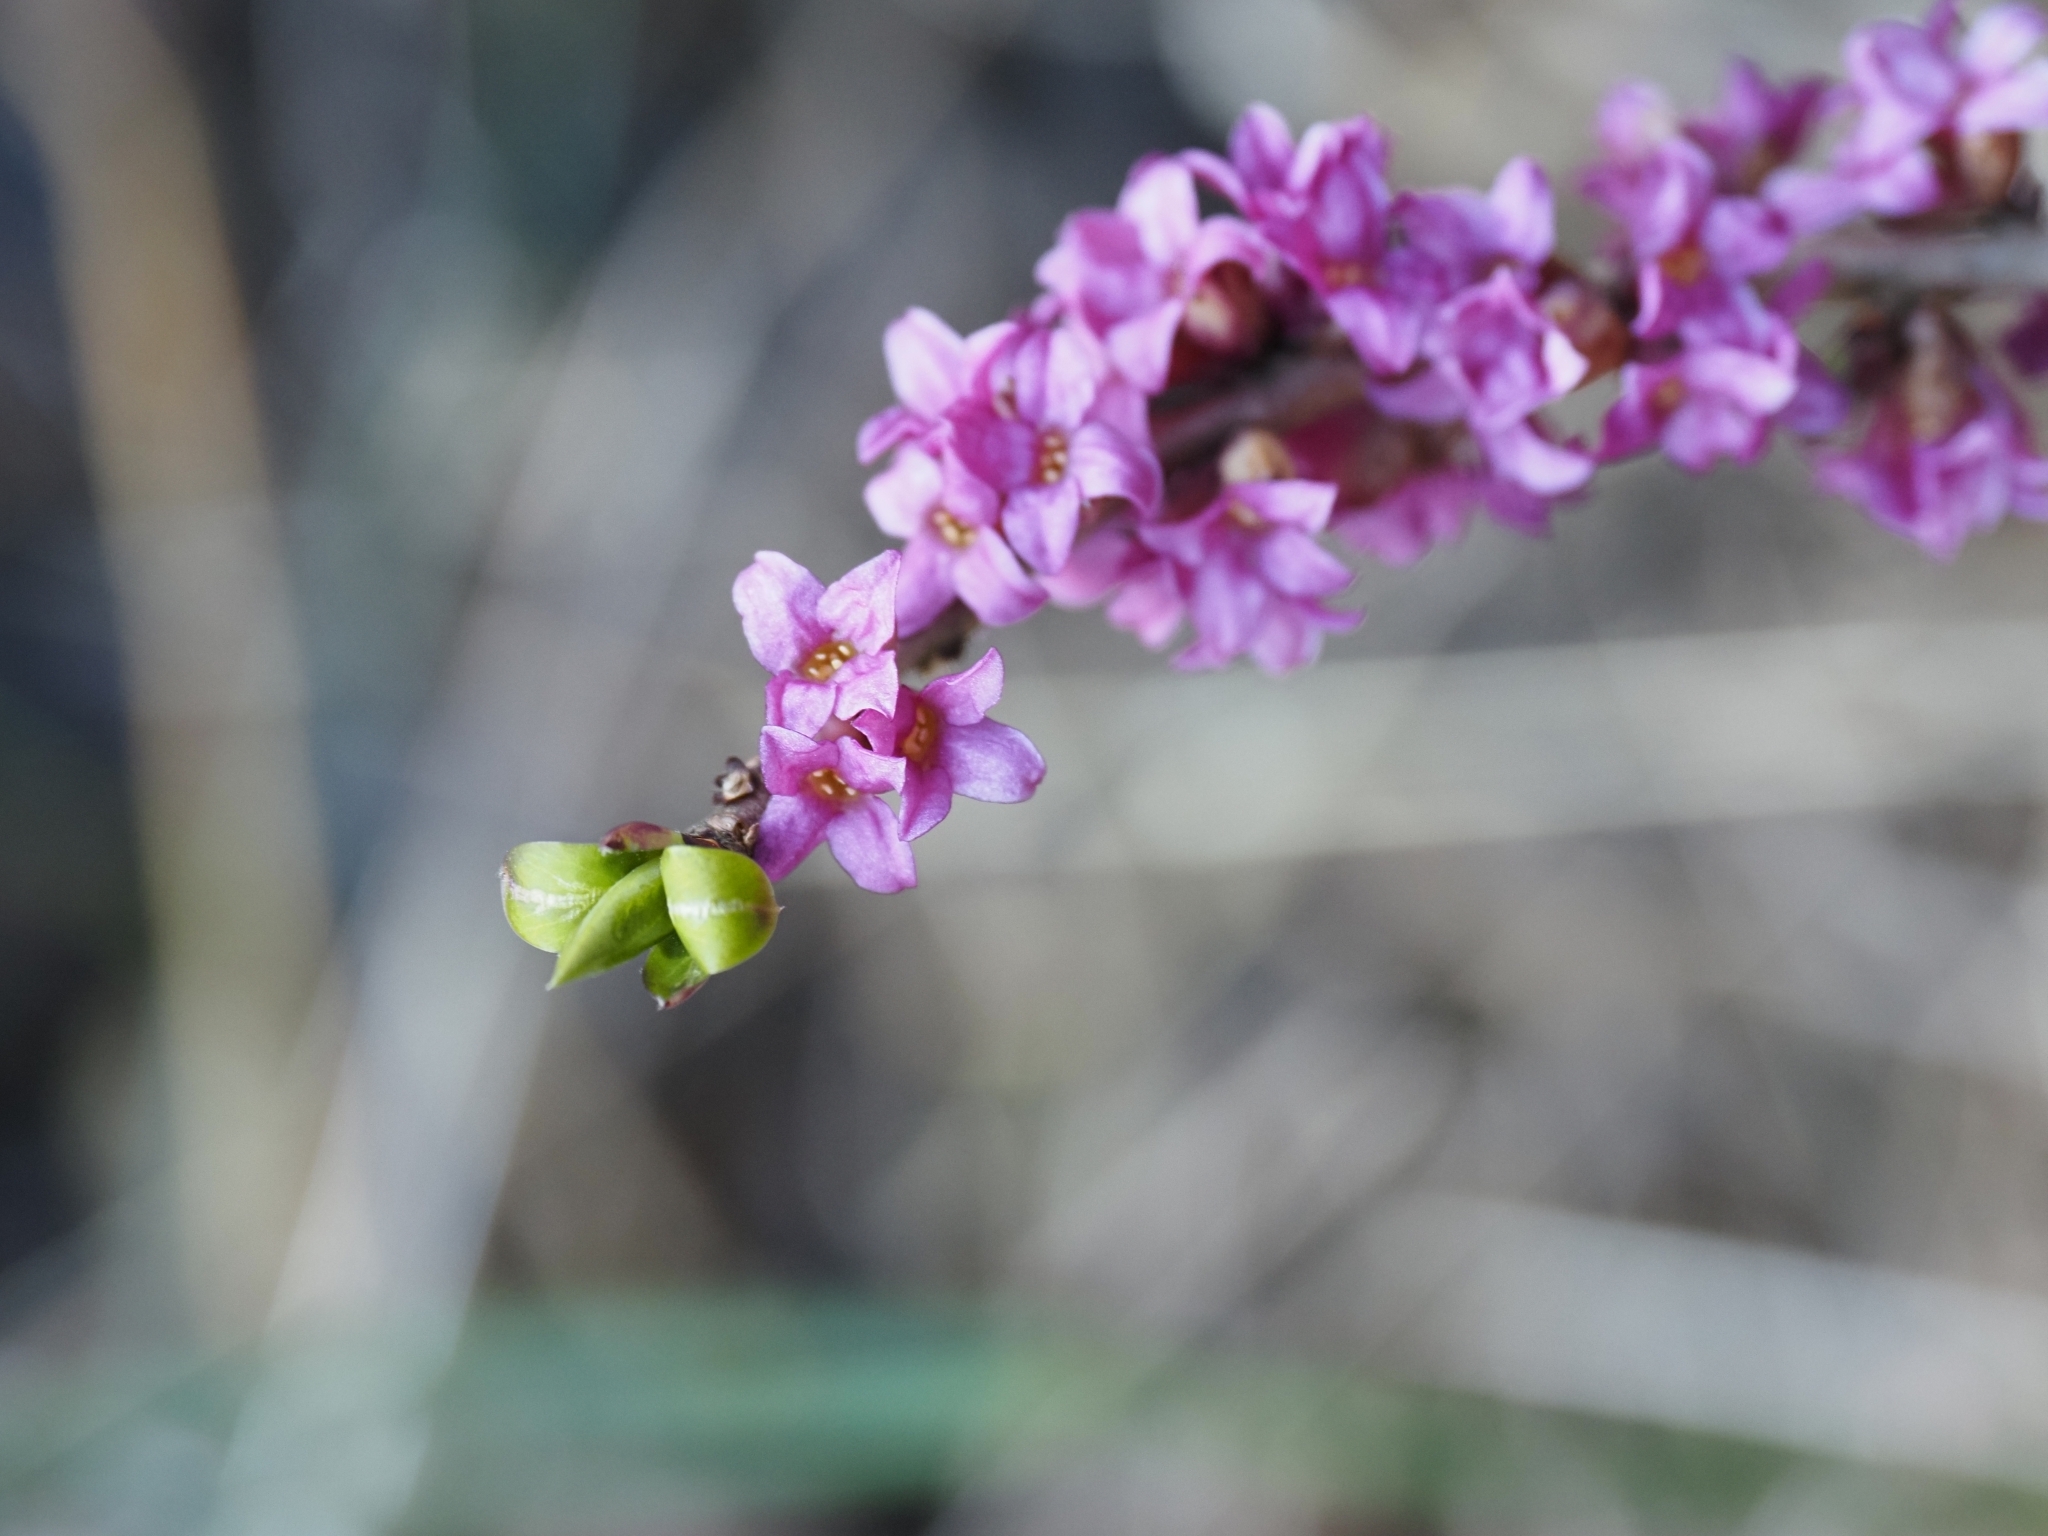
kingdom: Plantae
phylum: Tracheophyta
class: Magnoliopsida
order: Malvales
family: Thymelaeaceae
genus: Daphne
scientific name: Daphne mezereum
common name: Mezereon
